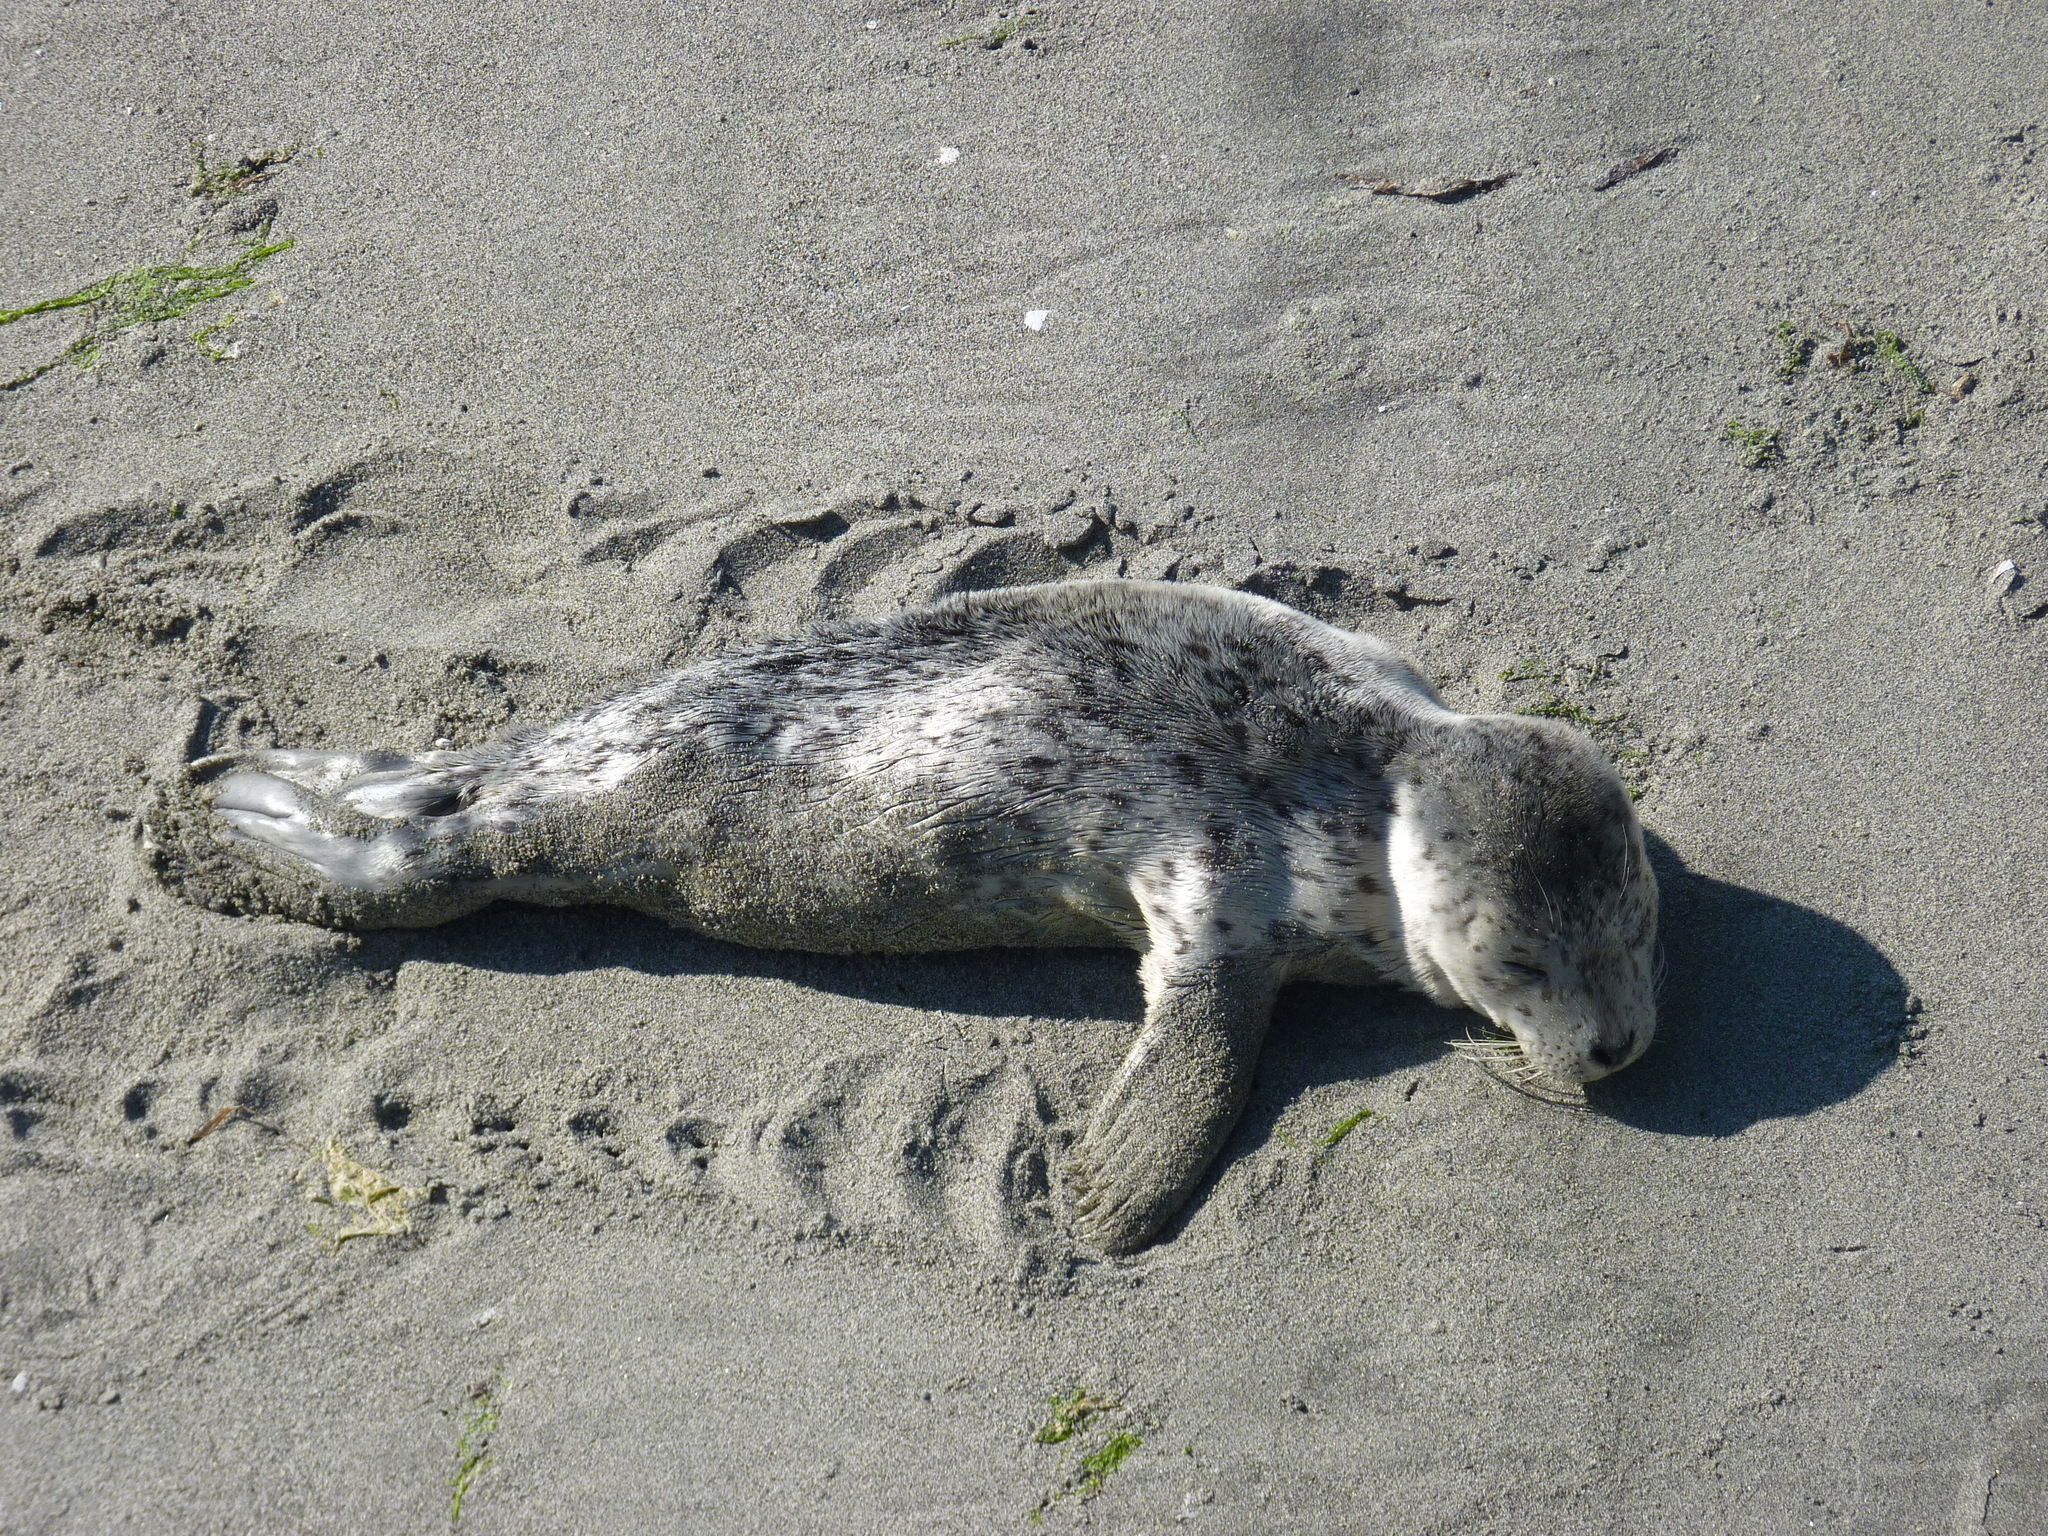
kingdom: Animalia
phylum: Chordata
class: Mammalia
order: Carnivora
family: Phocidae
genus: Phoca
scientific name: Phoca vitulina
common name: Harbor seal
